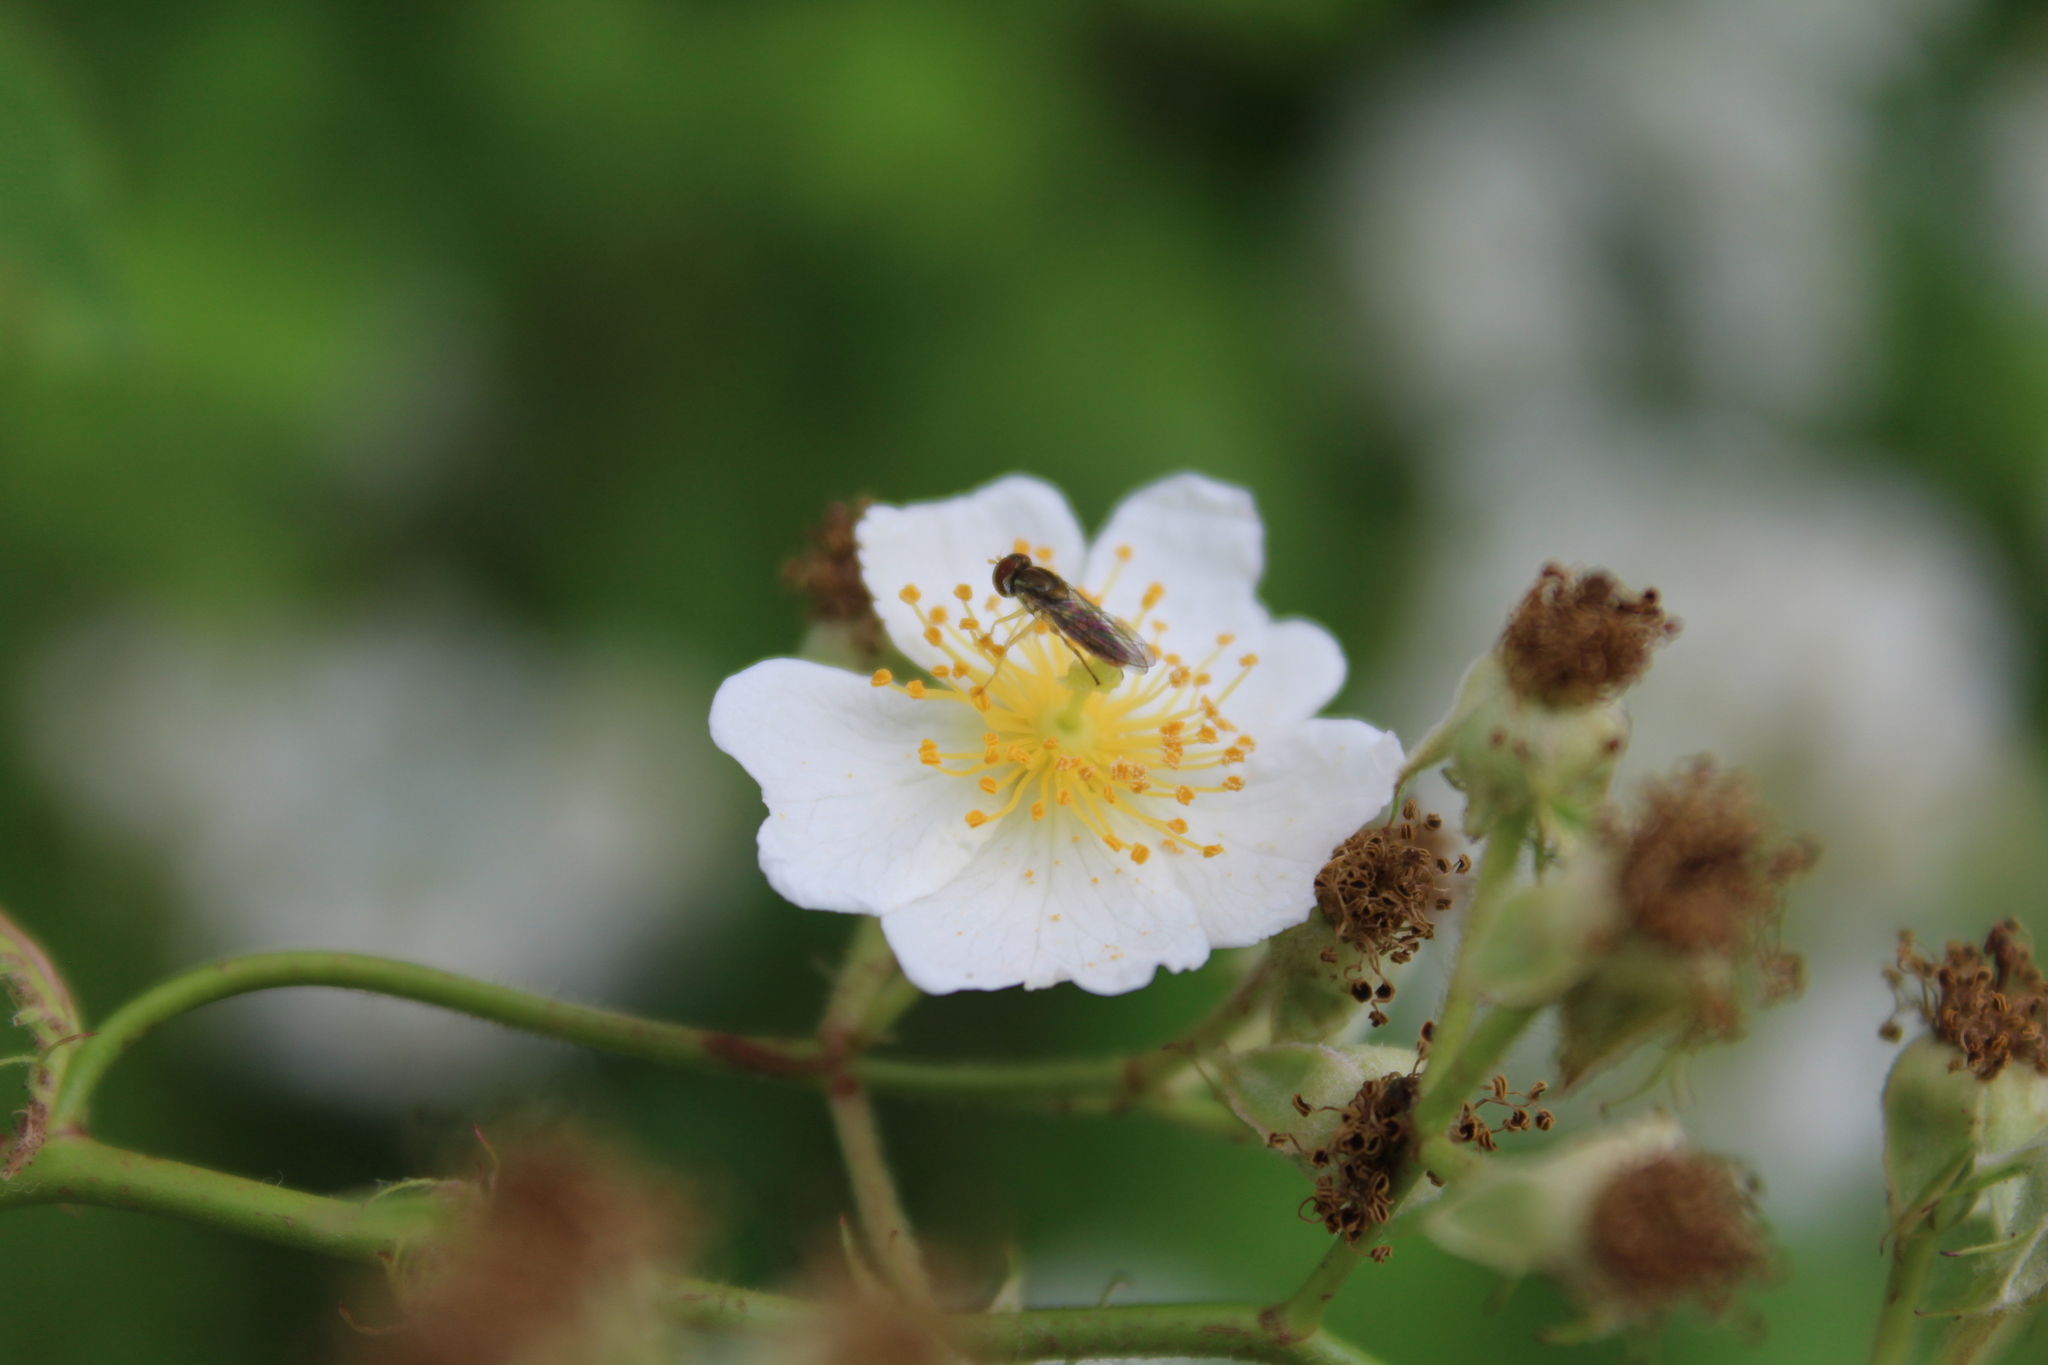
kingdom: Animalia
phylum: Arthropoda
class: Insecta
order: Diptera
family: Syrphidae
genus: Toxomerus
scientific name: Toxomerus marginatus
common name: Syrphid fly
